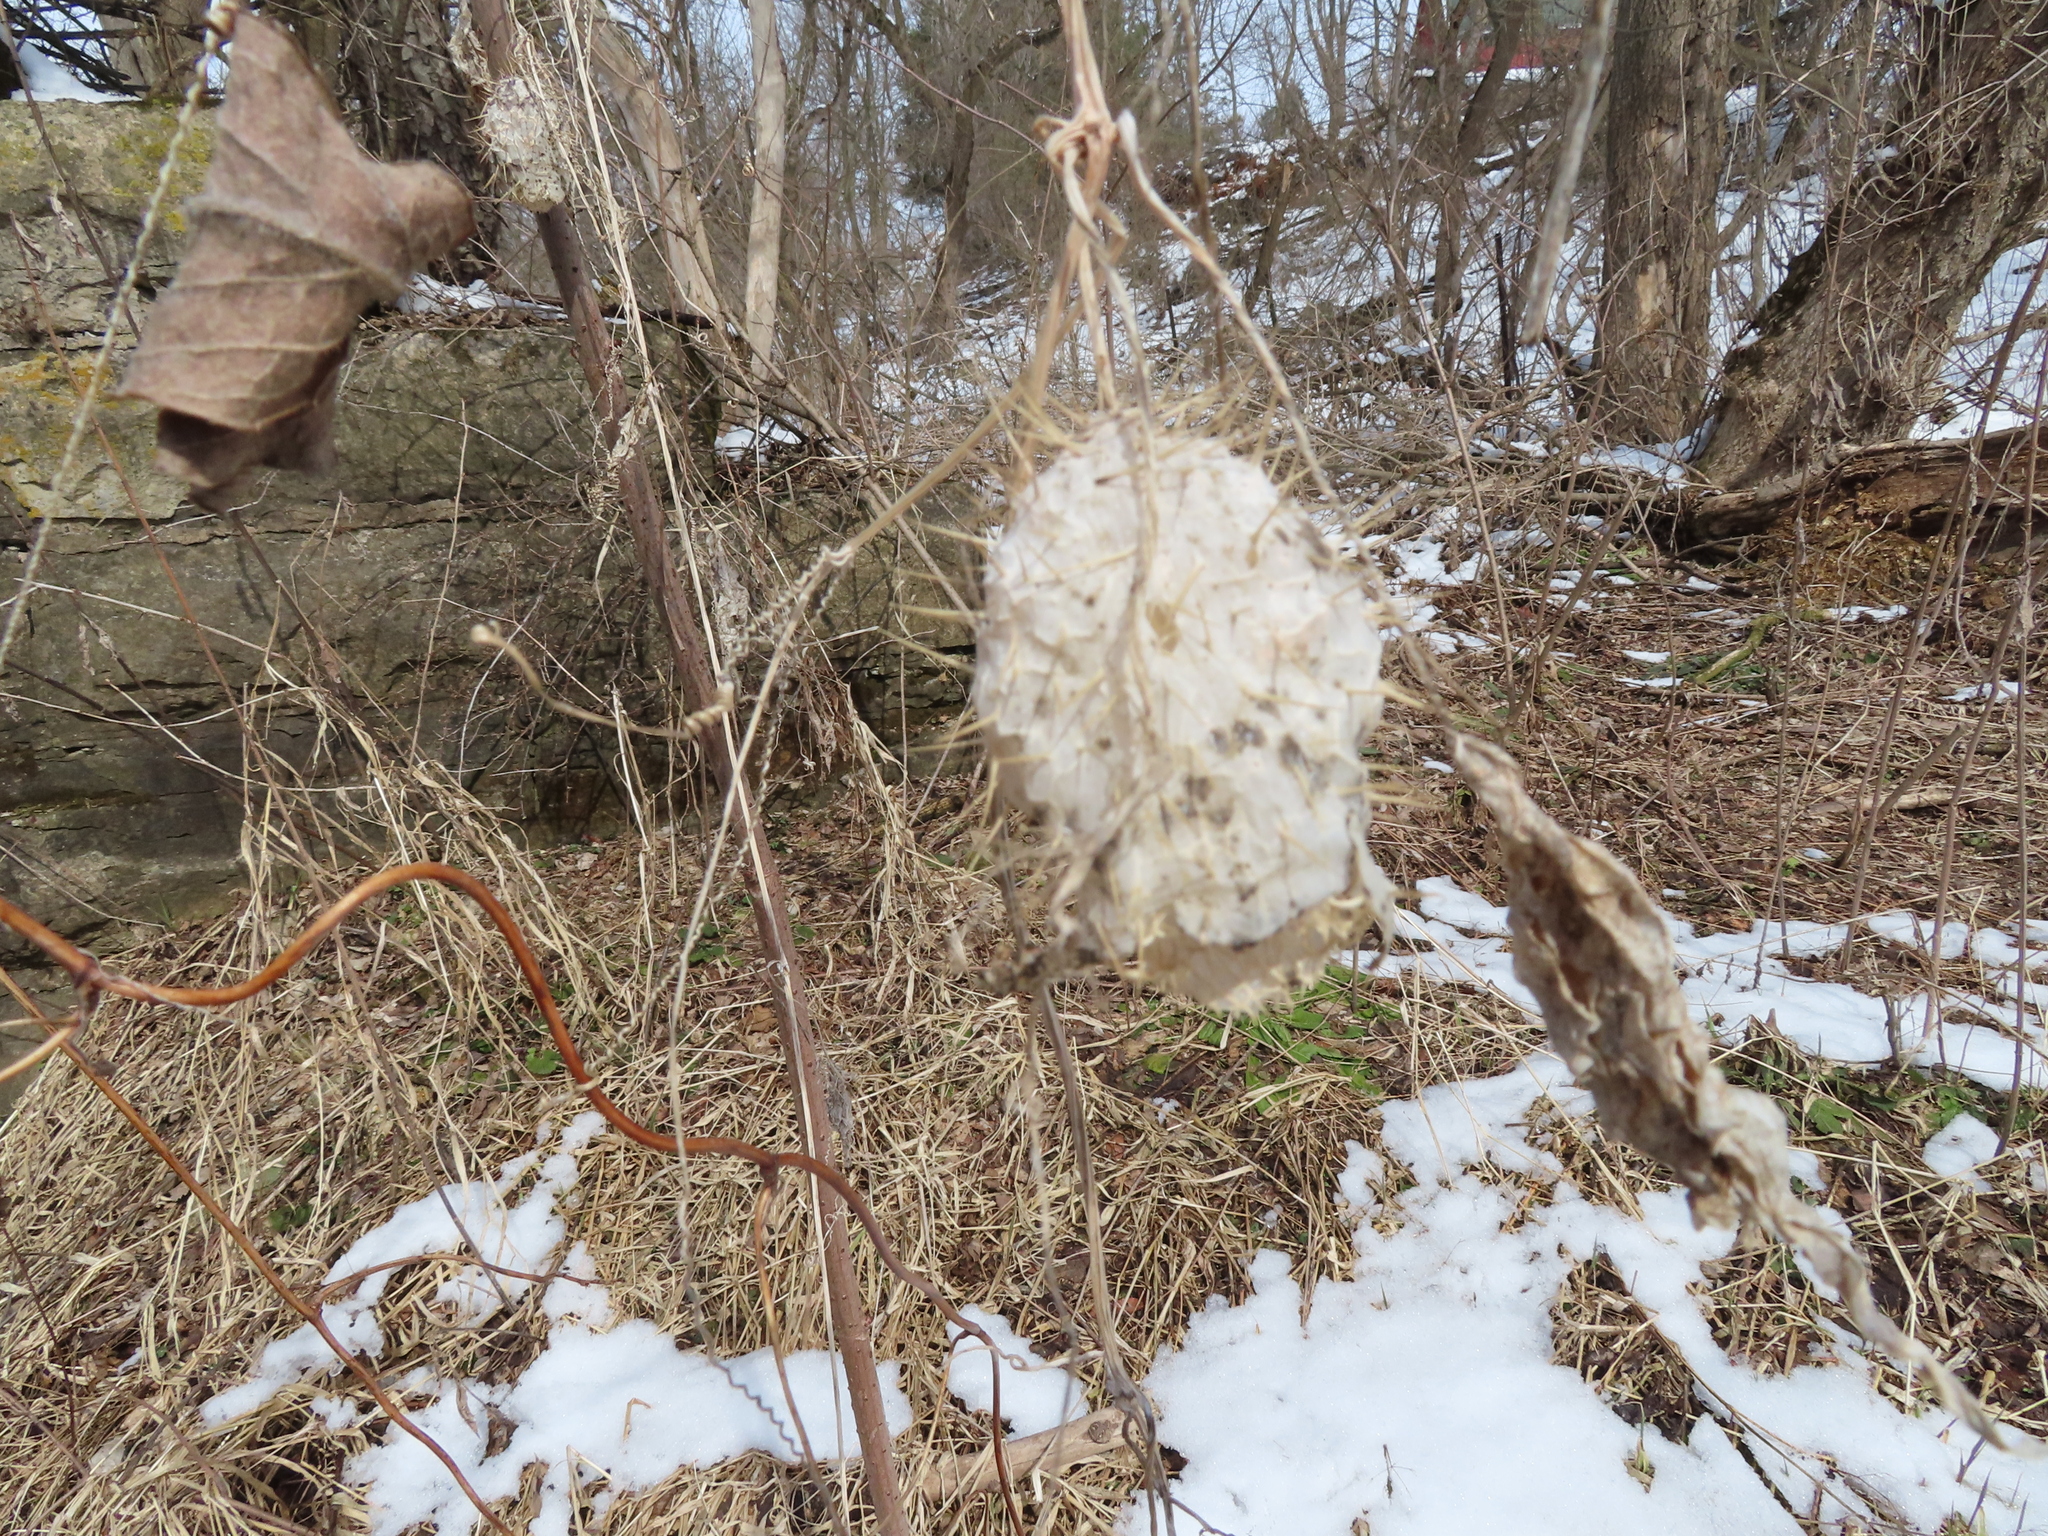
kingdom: Plantae
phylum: Tracheophyta
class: Magnoliopsida
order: Cucurbitales
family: Cucurbitaceae
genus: Echinocystis
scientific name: Echinocystis lobata
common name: Wild cucumber
